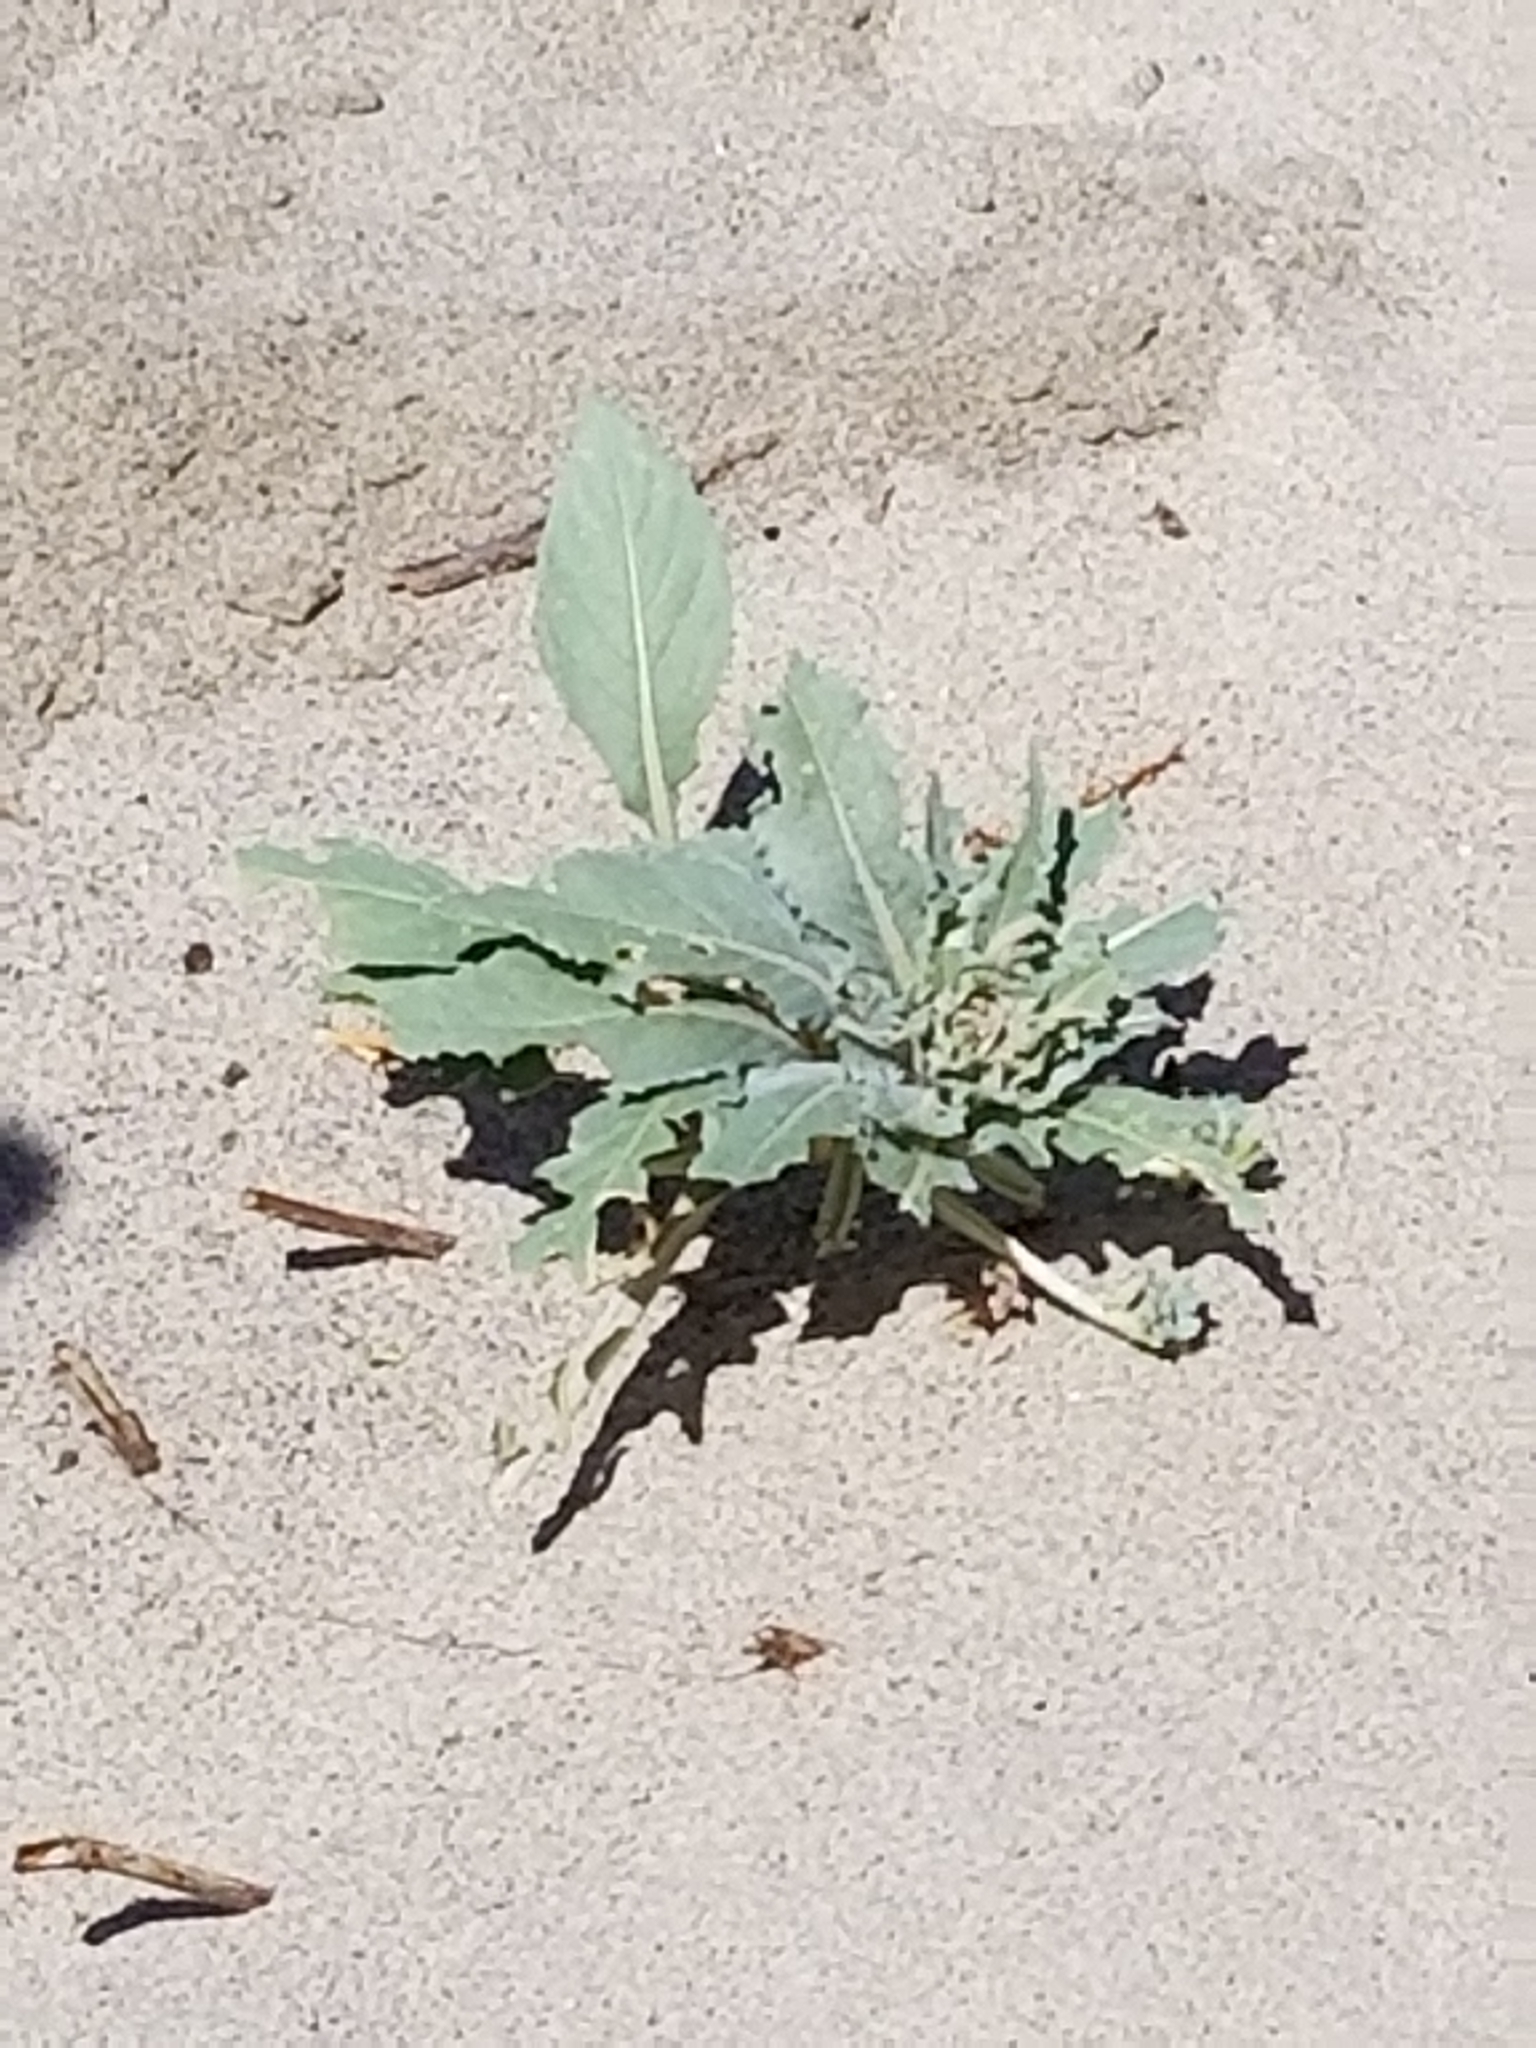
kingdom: Plantae
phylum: Tracheophyta
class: Magnoliopsida
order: Myrtales
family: Onagraceae
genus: Oenothera
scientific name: Oenothera deltoides
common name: Basket evening-primrose
